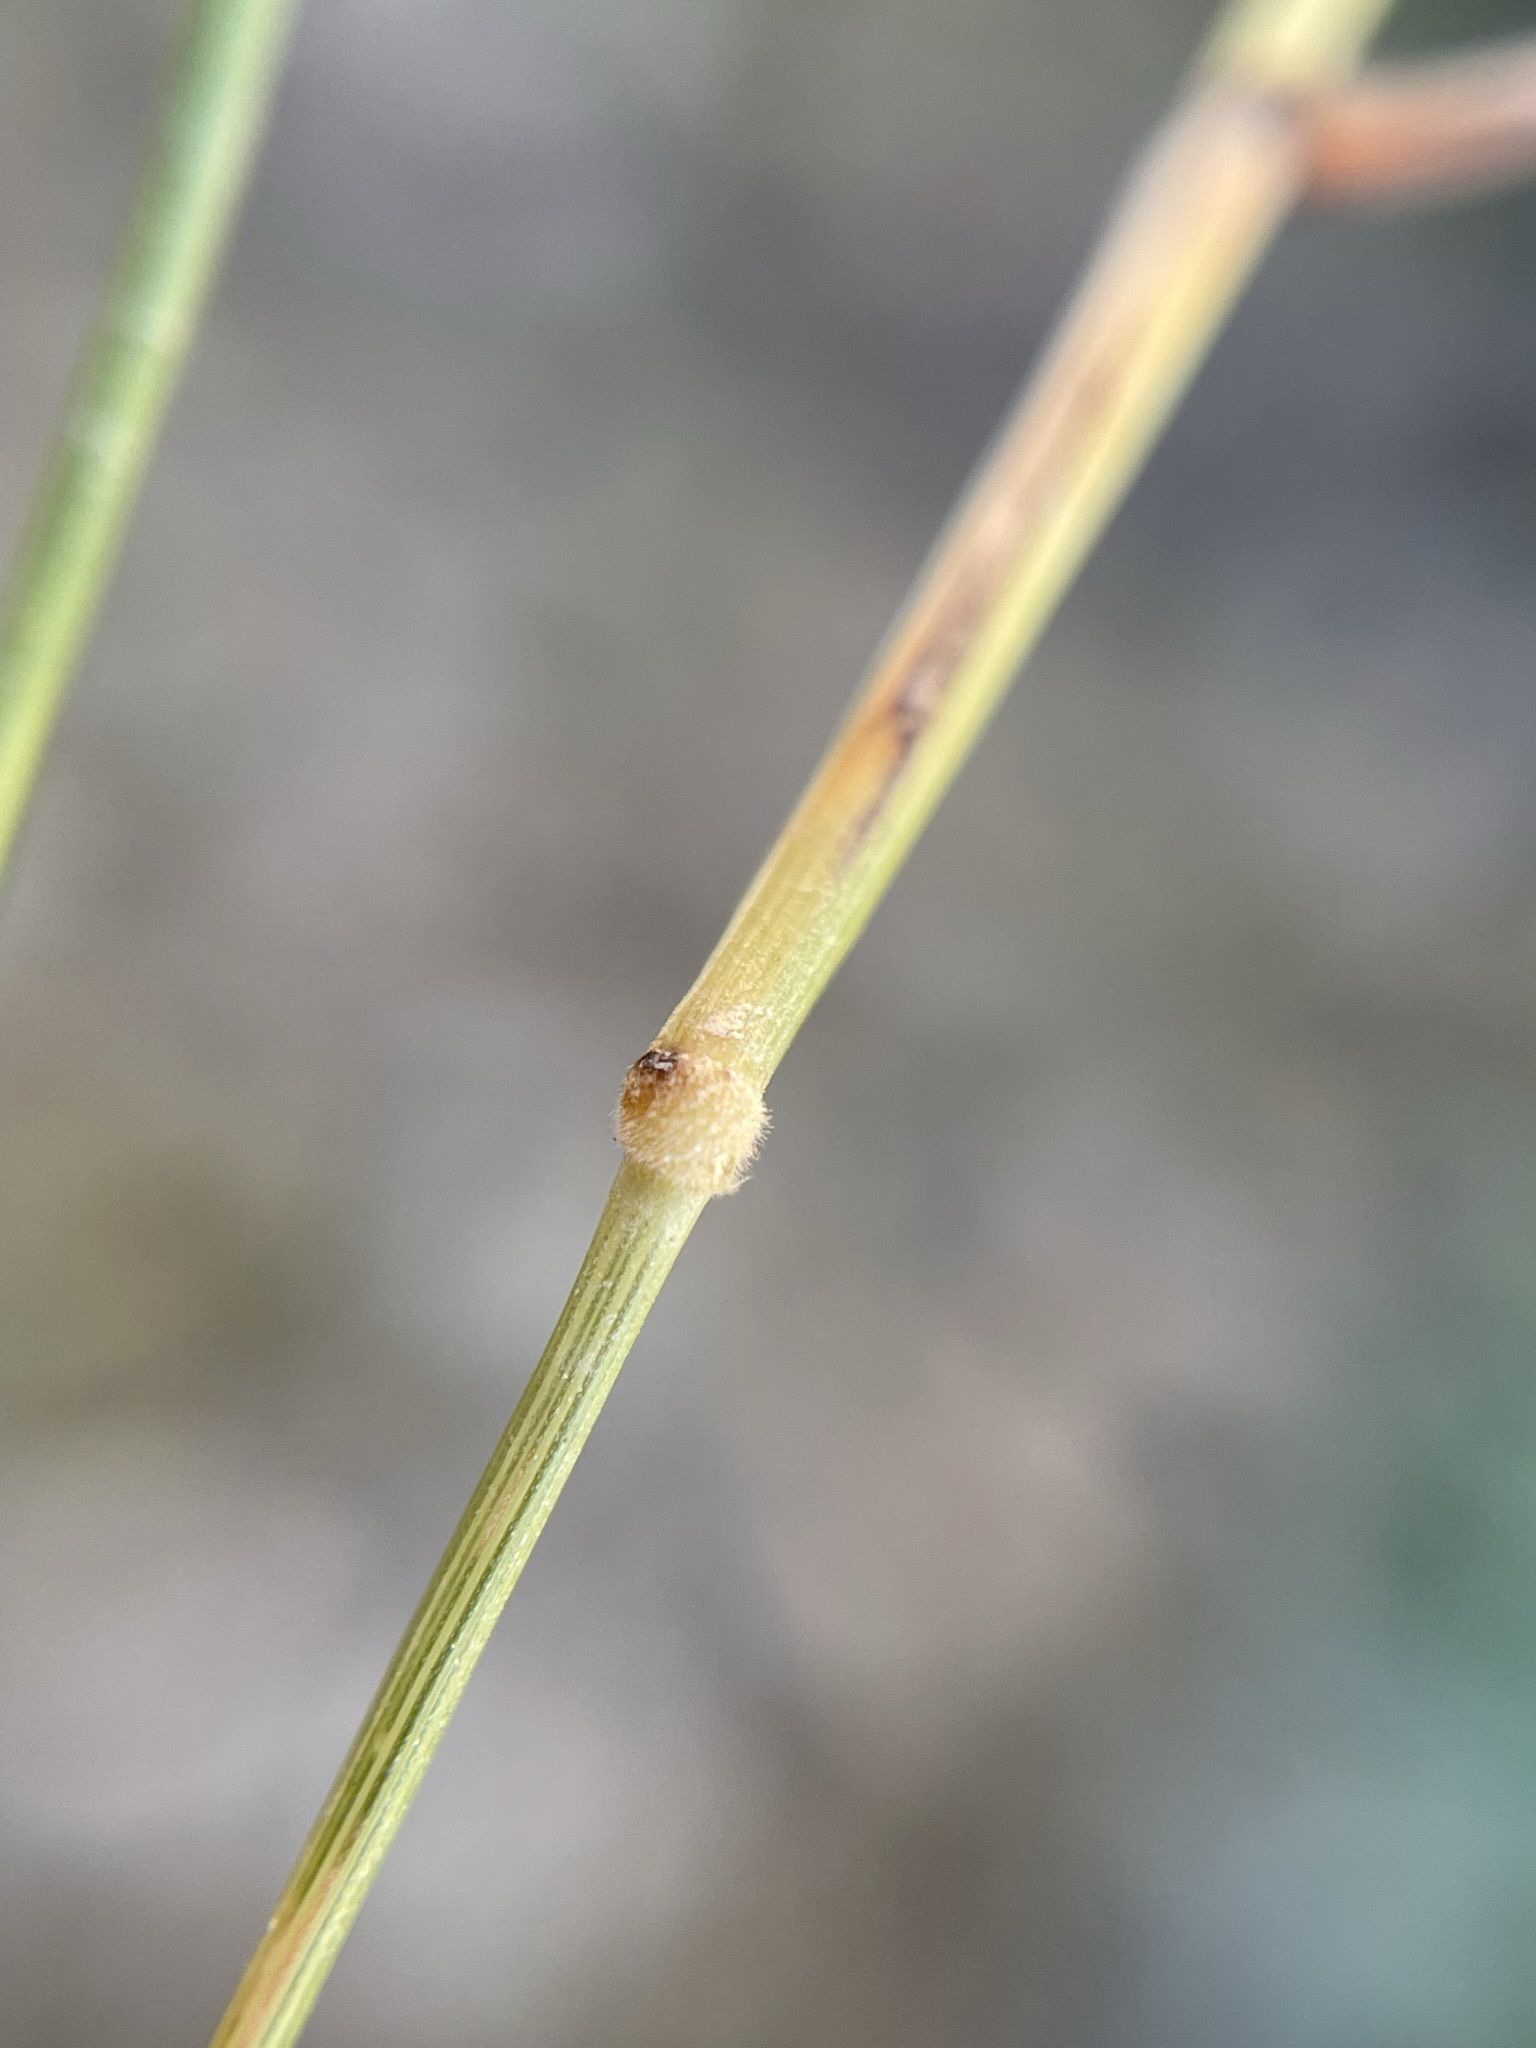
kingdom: Plantae
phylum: Tracheophyta
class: Liliopsida
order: Poales
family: Poaceae
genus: Brachypodium
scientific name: Brachypodium distachyon
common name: Stiff brome
